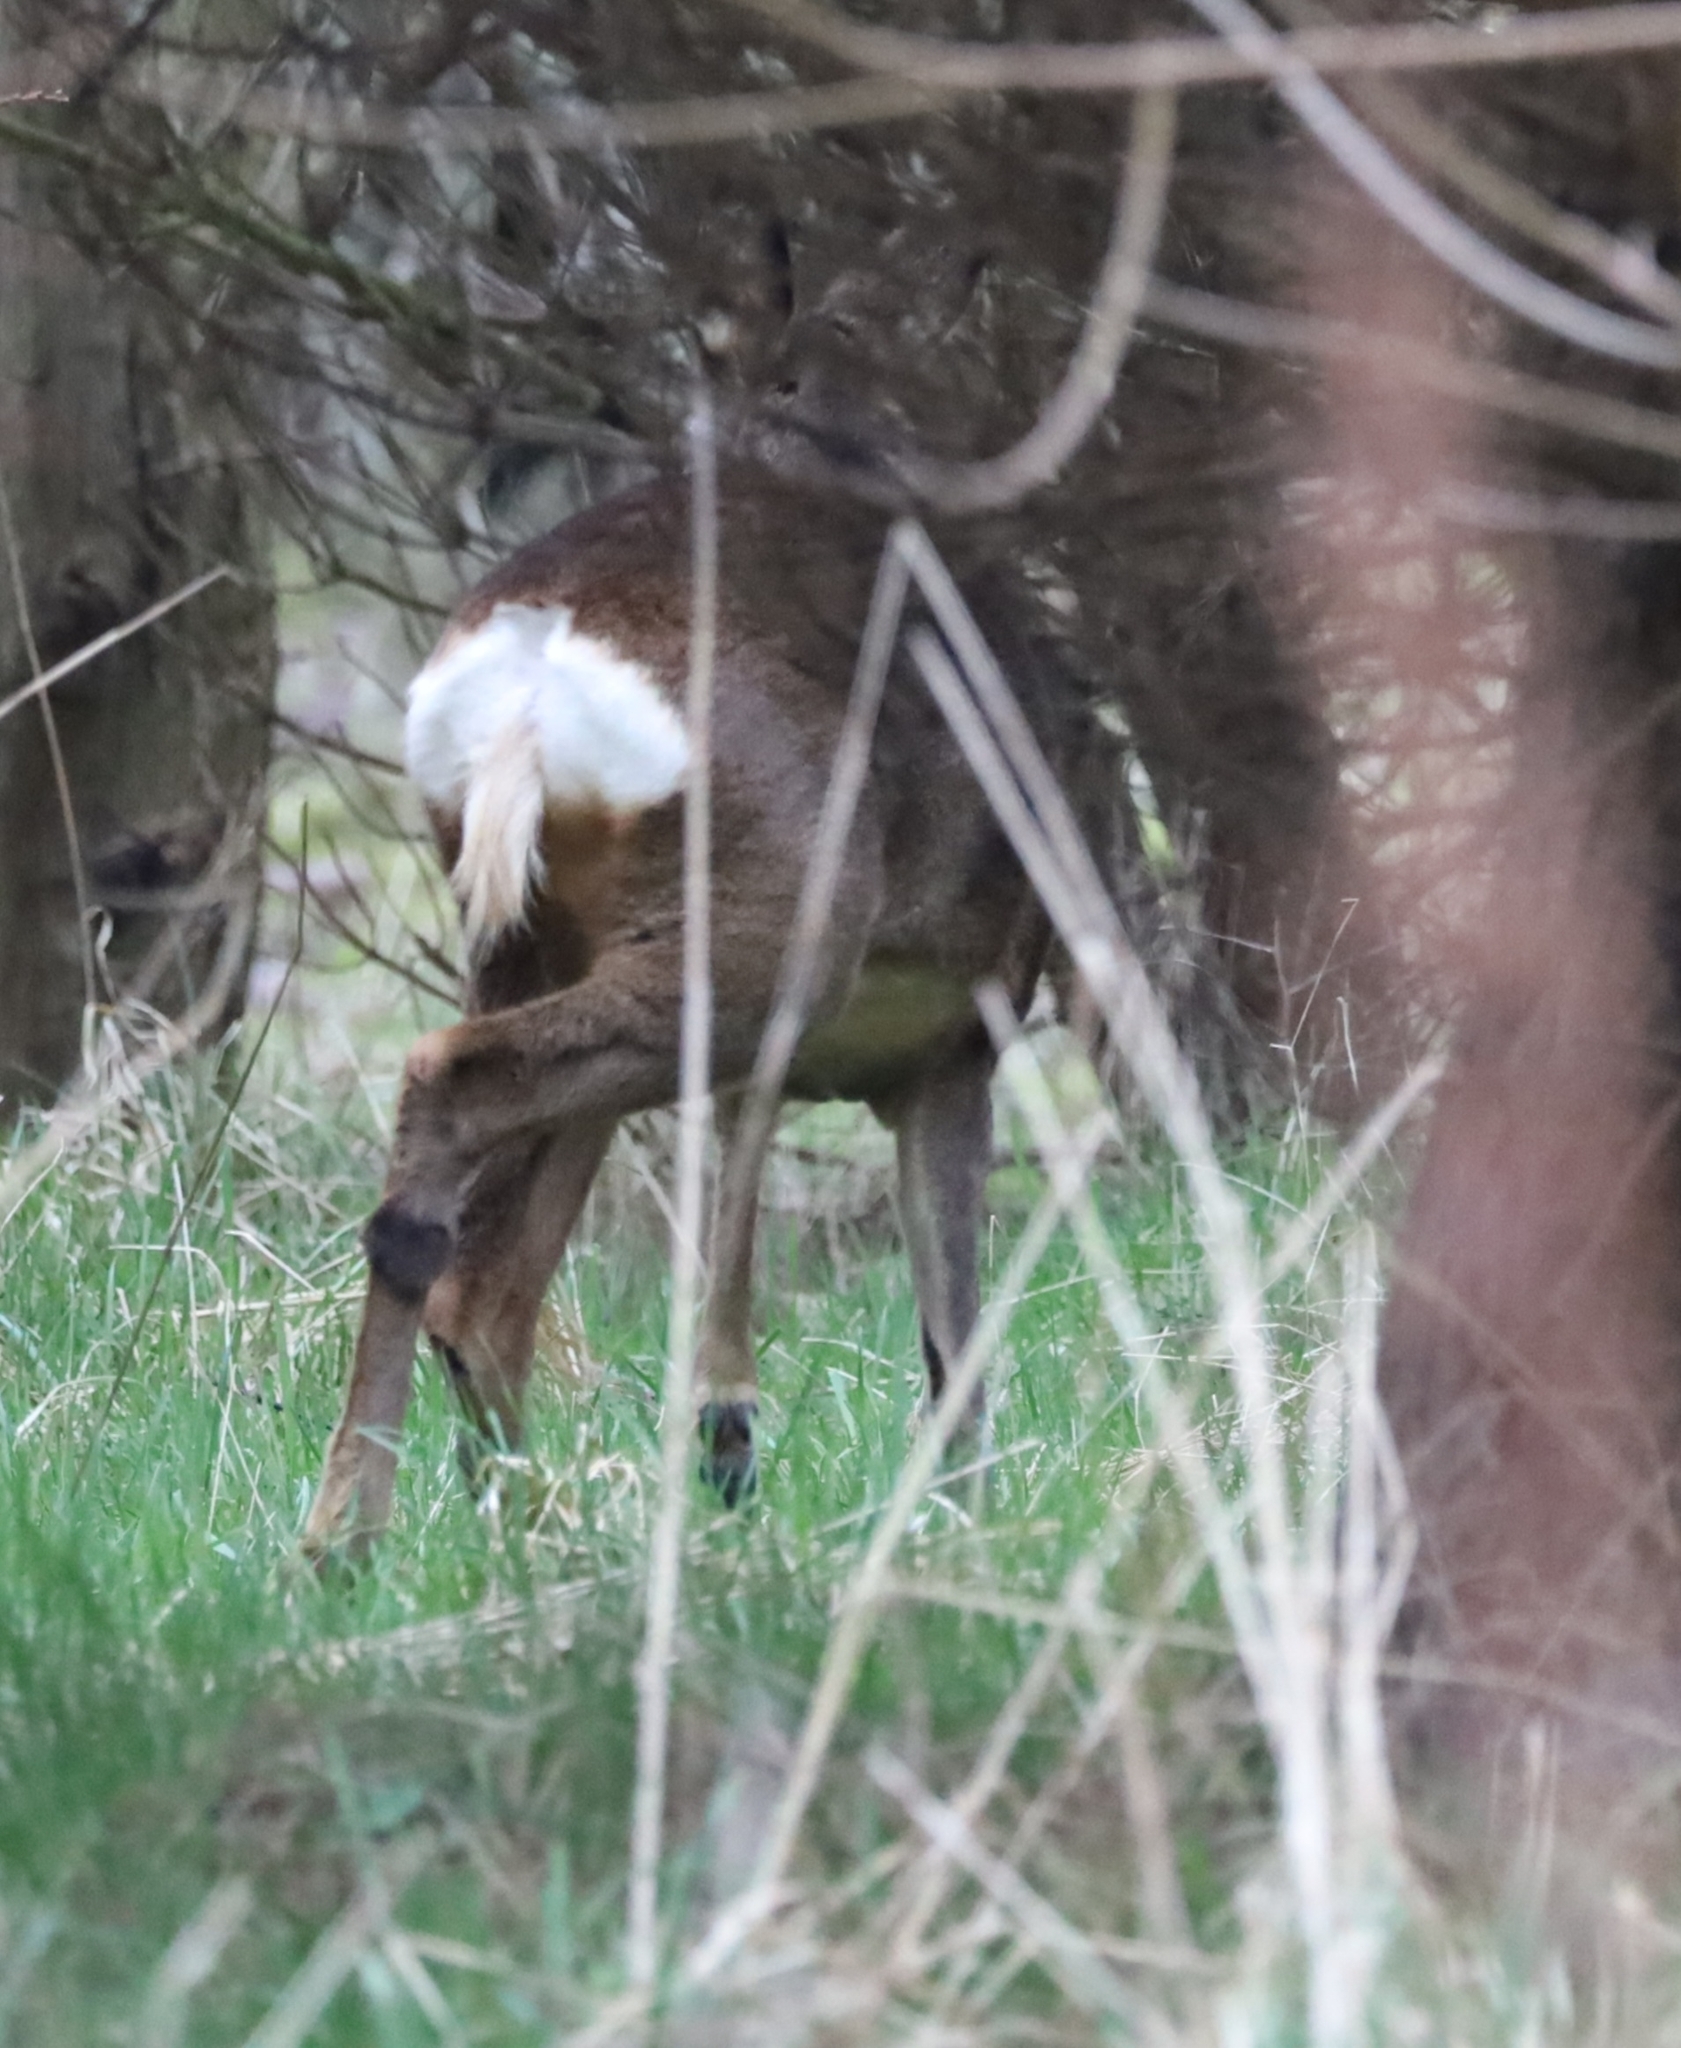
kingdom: Animalia
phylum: Chordata
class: Mammalia
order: Artiodactyla
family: Cervidae
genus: Capreolus
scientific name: Capreolus capreolus
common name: Western roe deer
